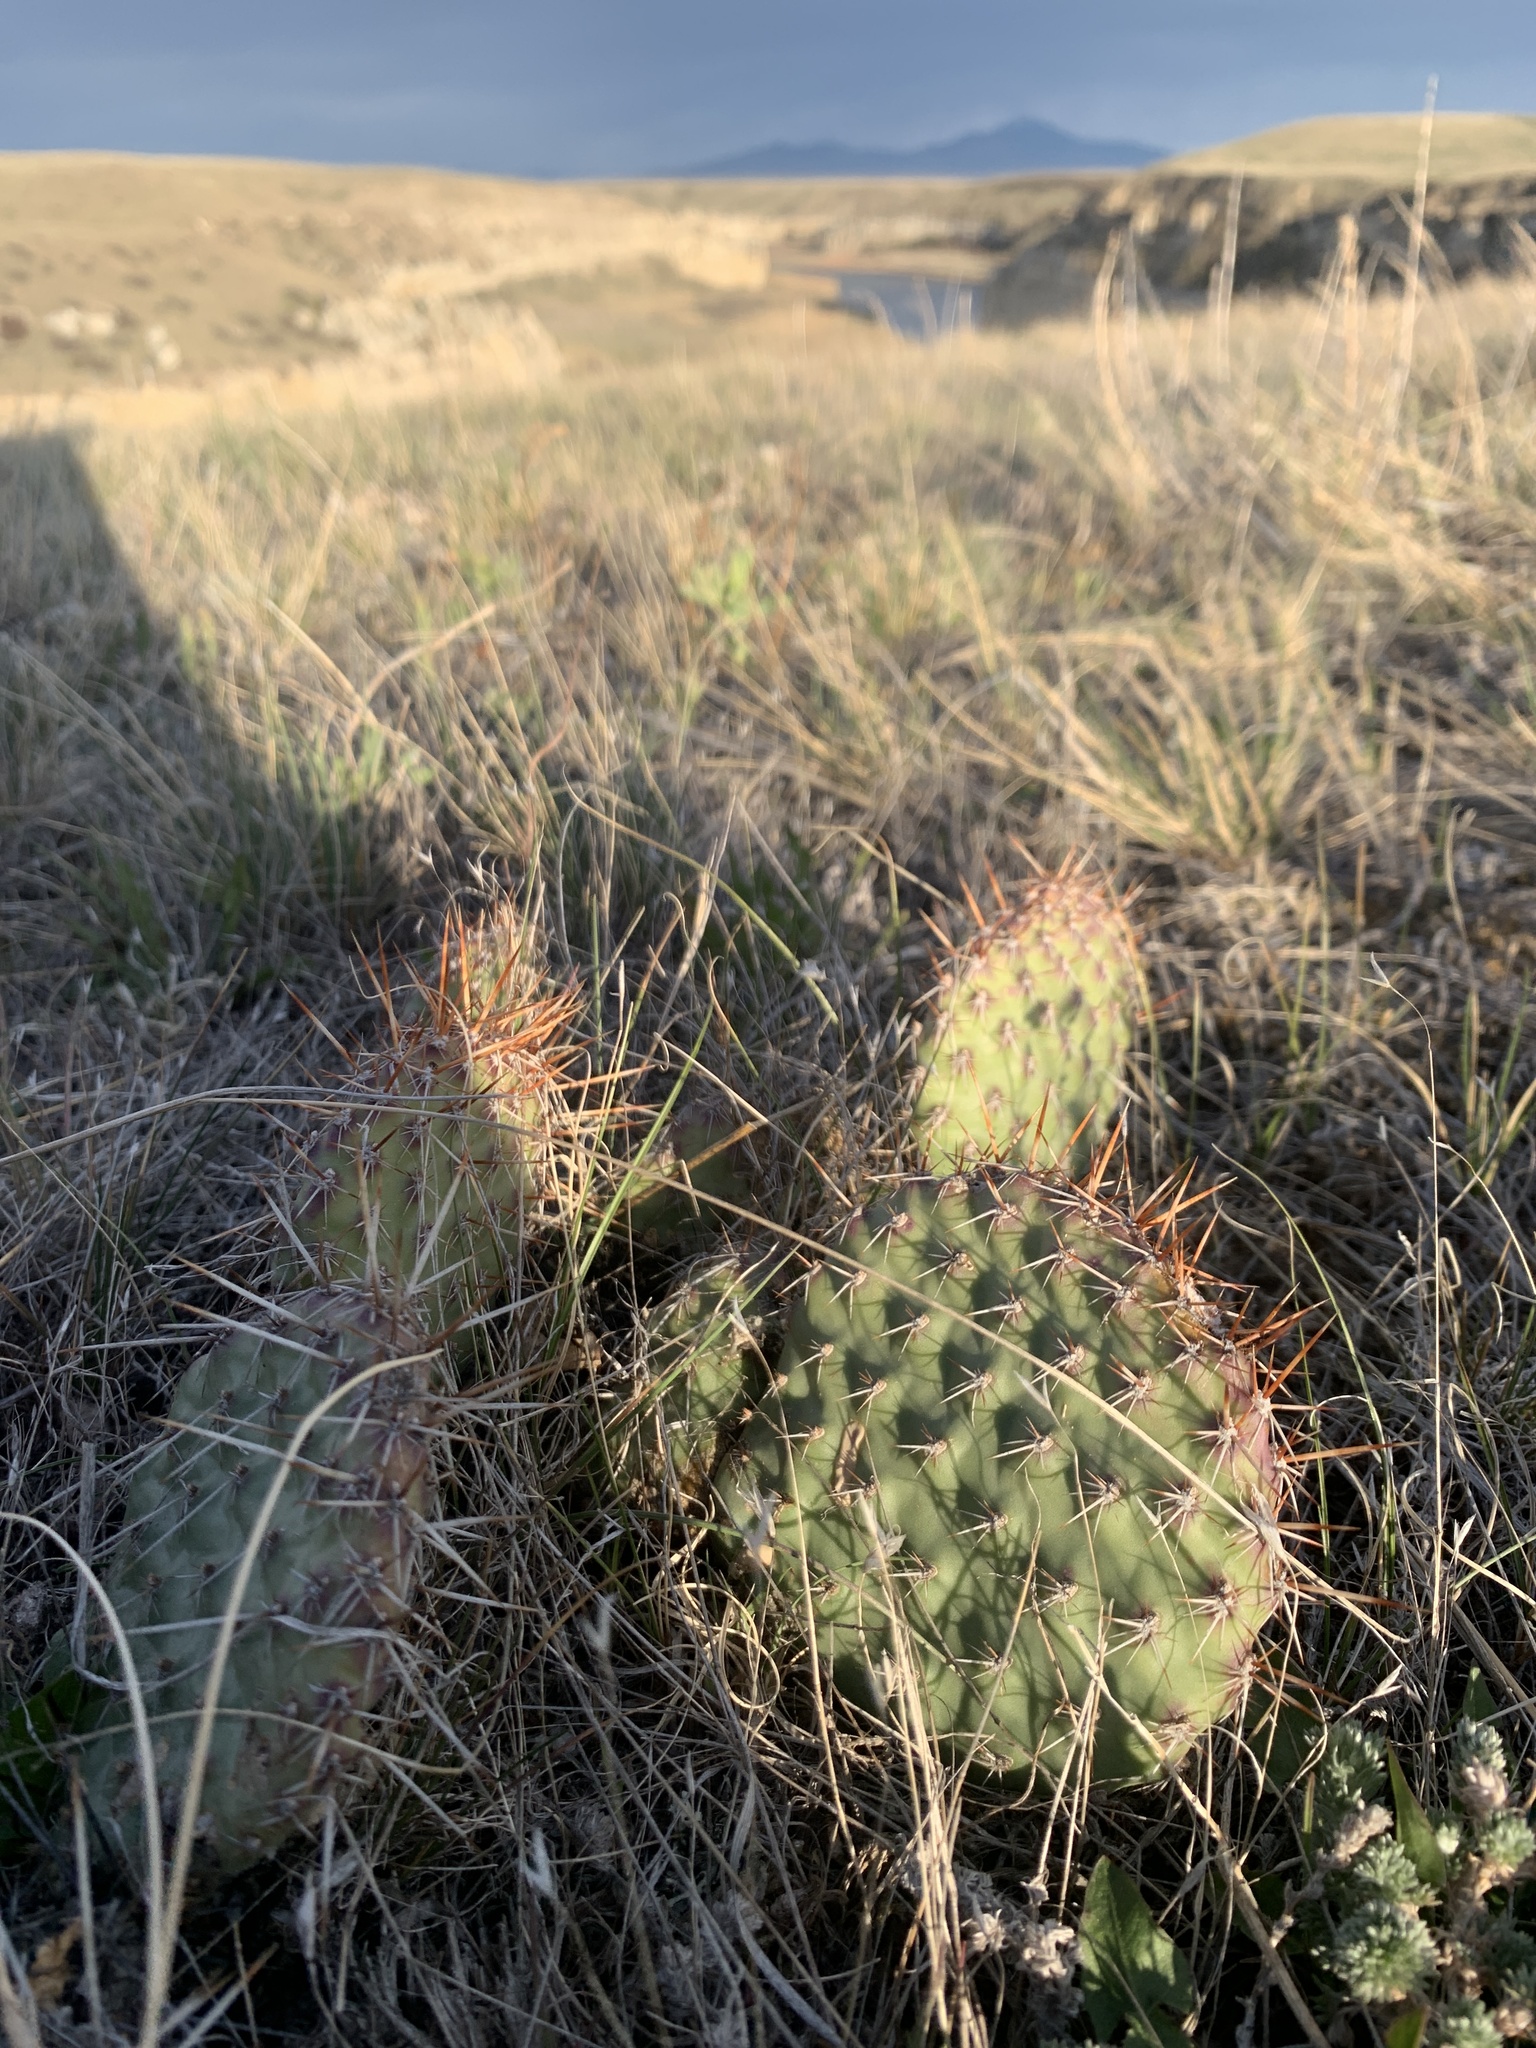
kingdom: Plantae
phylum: Tracheophyta
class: Magnoliopsida
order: Caryophyllales
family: Cactaceae
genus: Opuntia
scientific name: Opuntia polyacantha
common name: Plains prickly-pear
